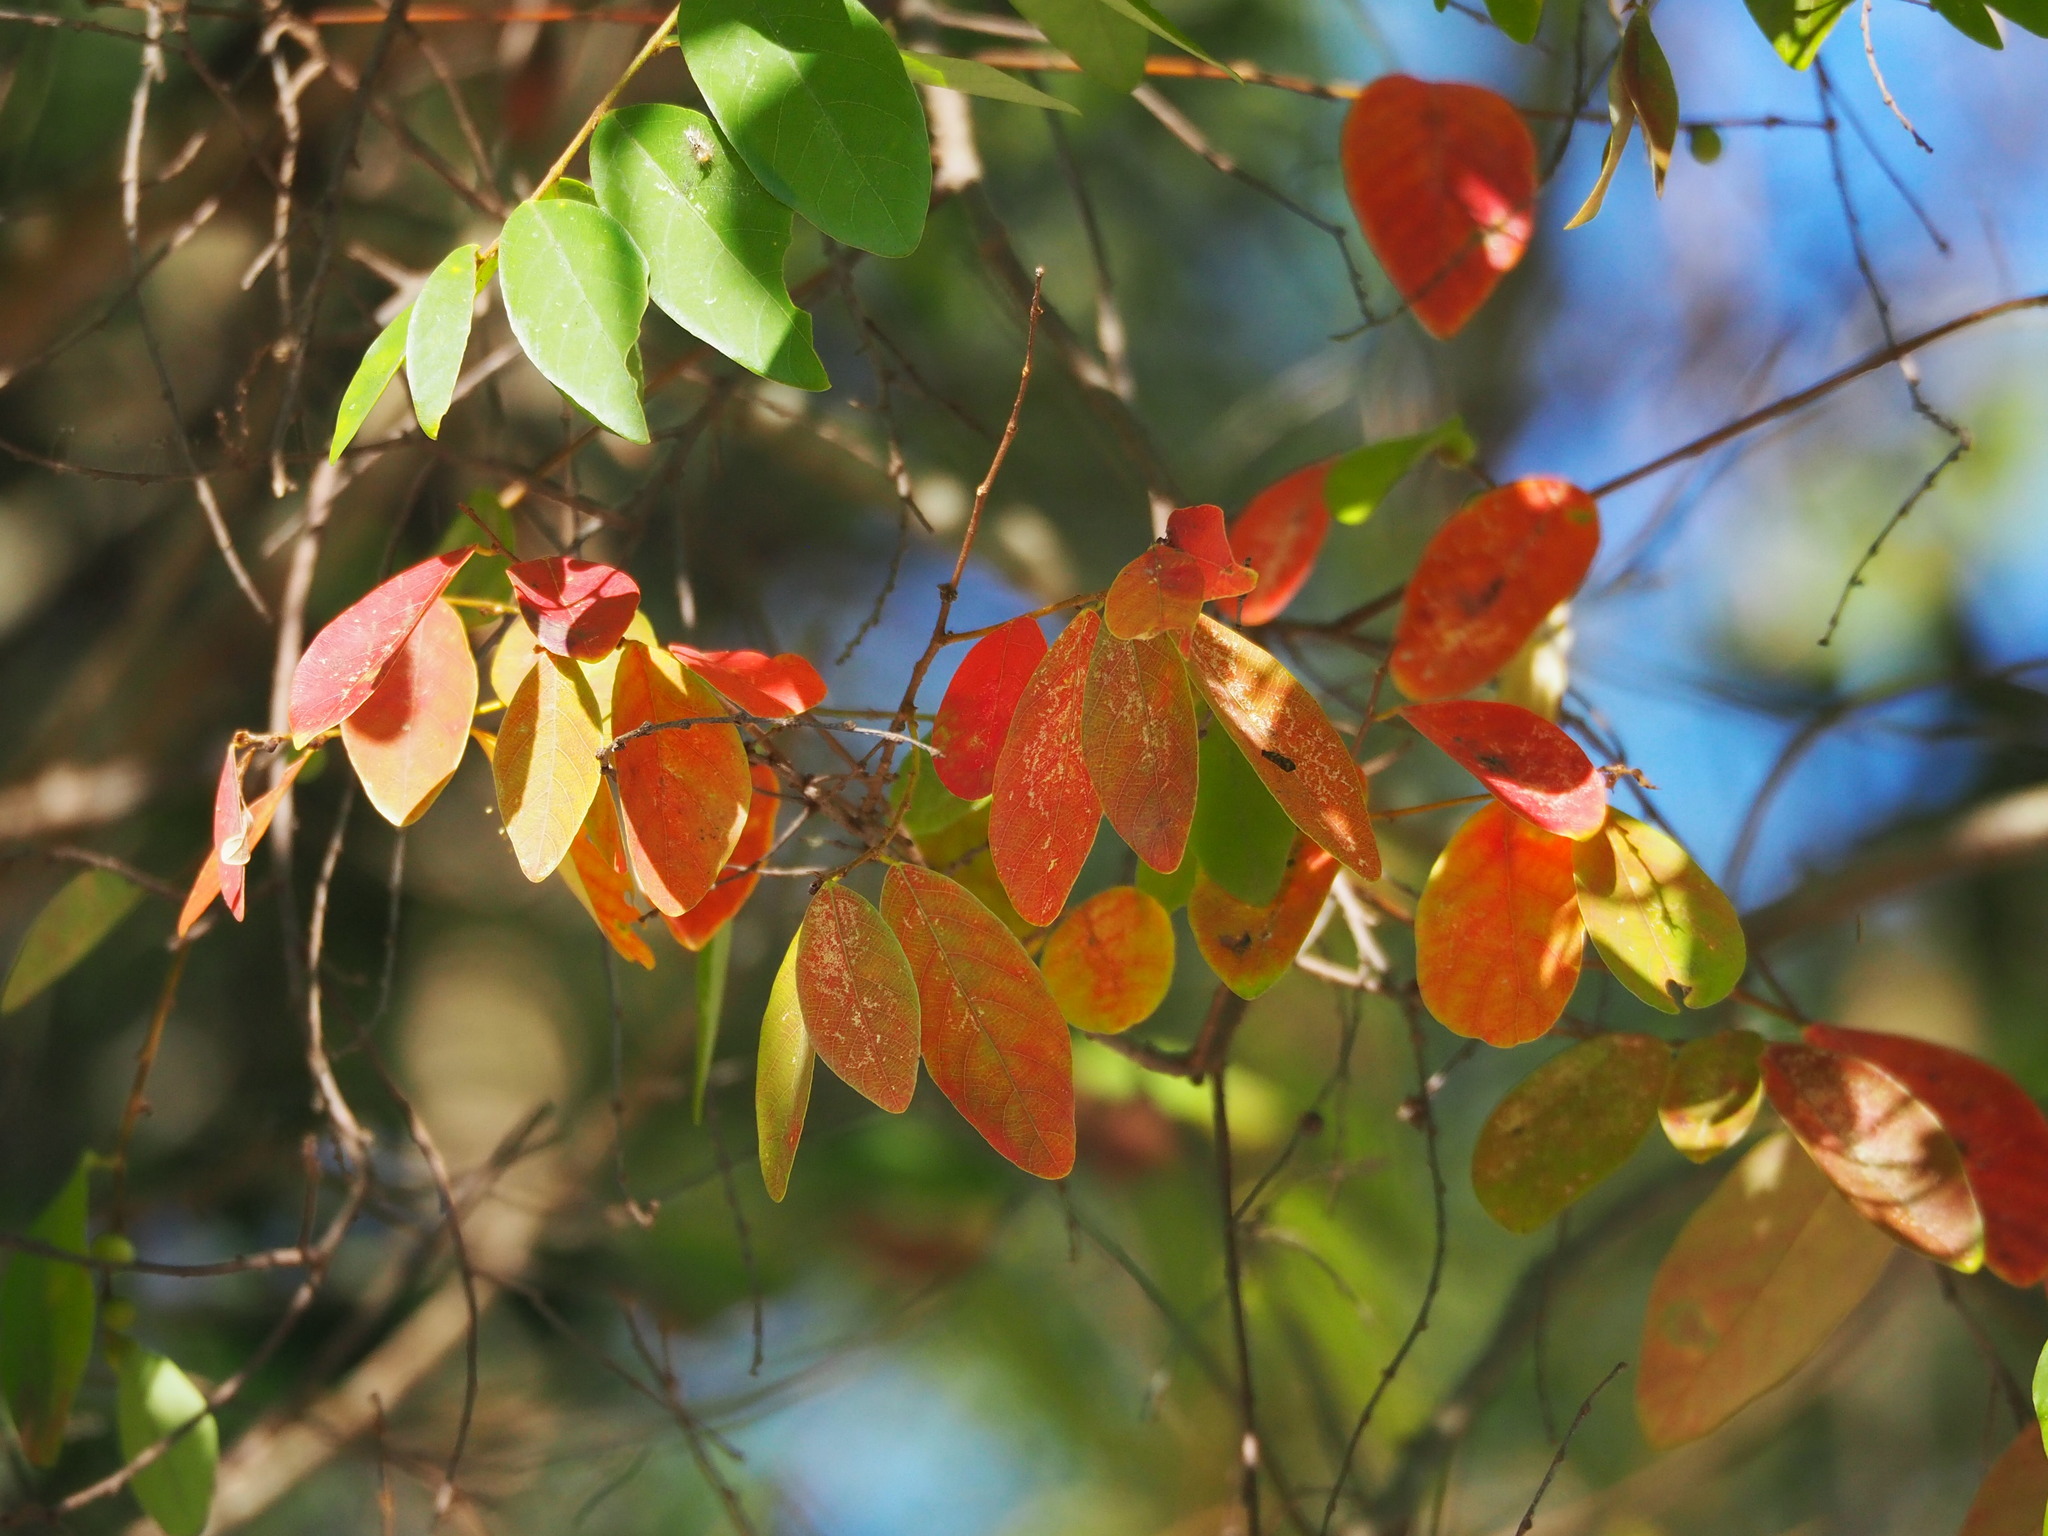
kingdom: Plantae
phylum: Tracheophyta
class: Magnoliopsida
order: Malpighiales
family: Phyllanthaceae
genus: Bridelia
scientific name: Bridelia tomentosa
